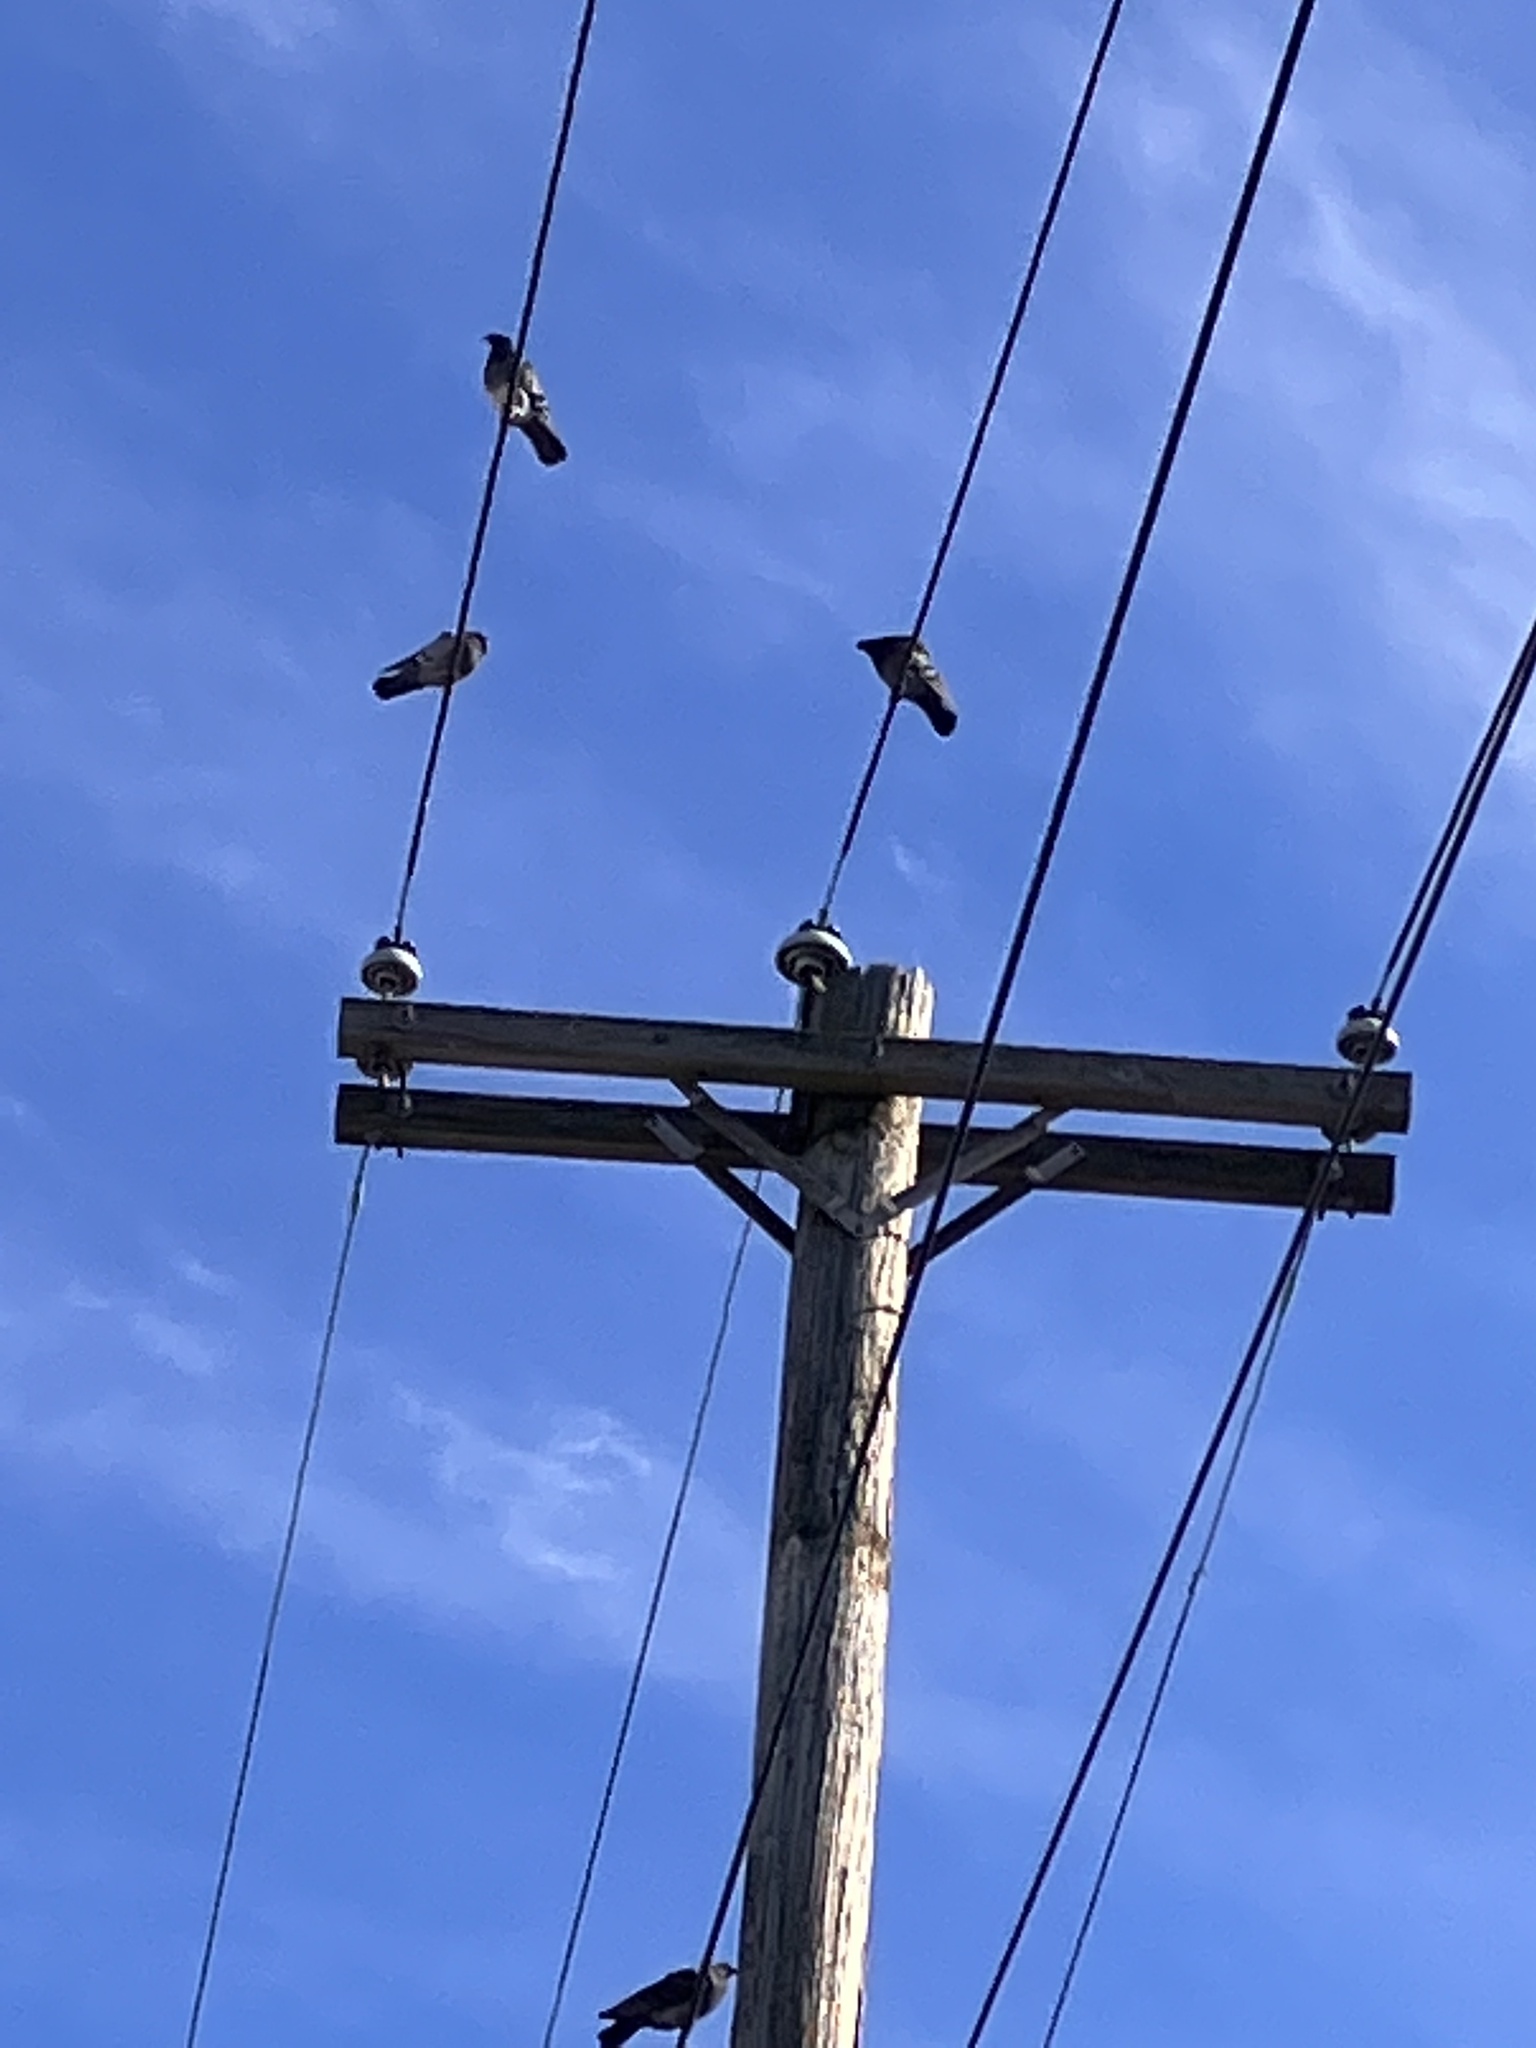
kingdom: Animalia
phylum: Chordata
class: Aves
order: Columbiformes
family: Columbidae
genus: Columba
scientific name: Columba livia
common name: Rock pigeon
